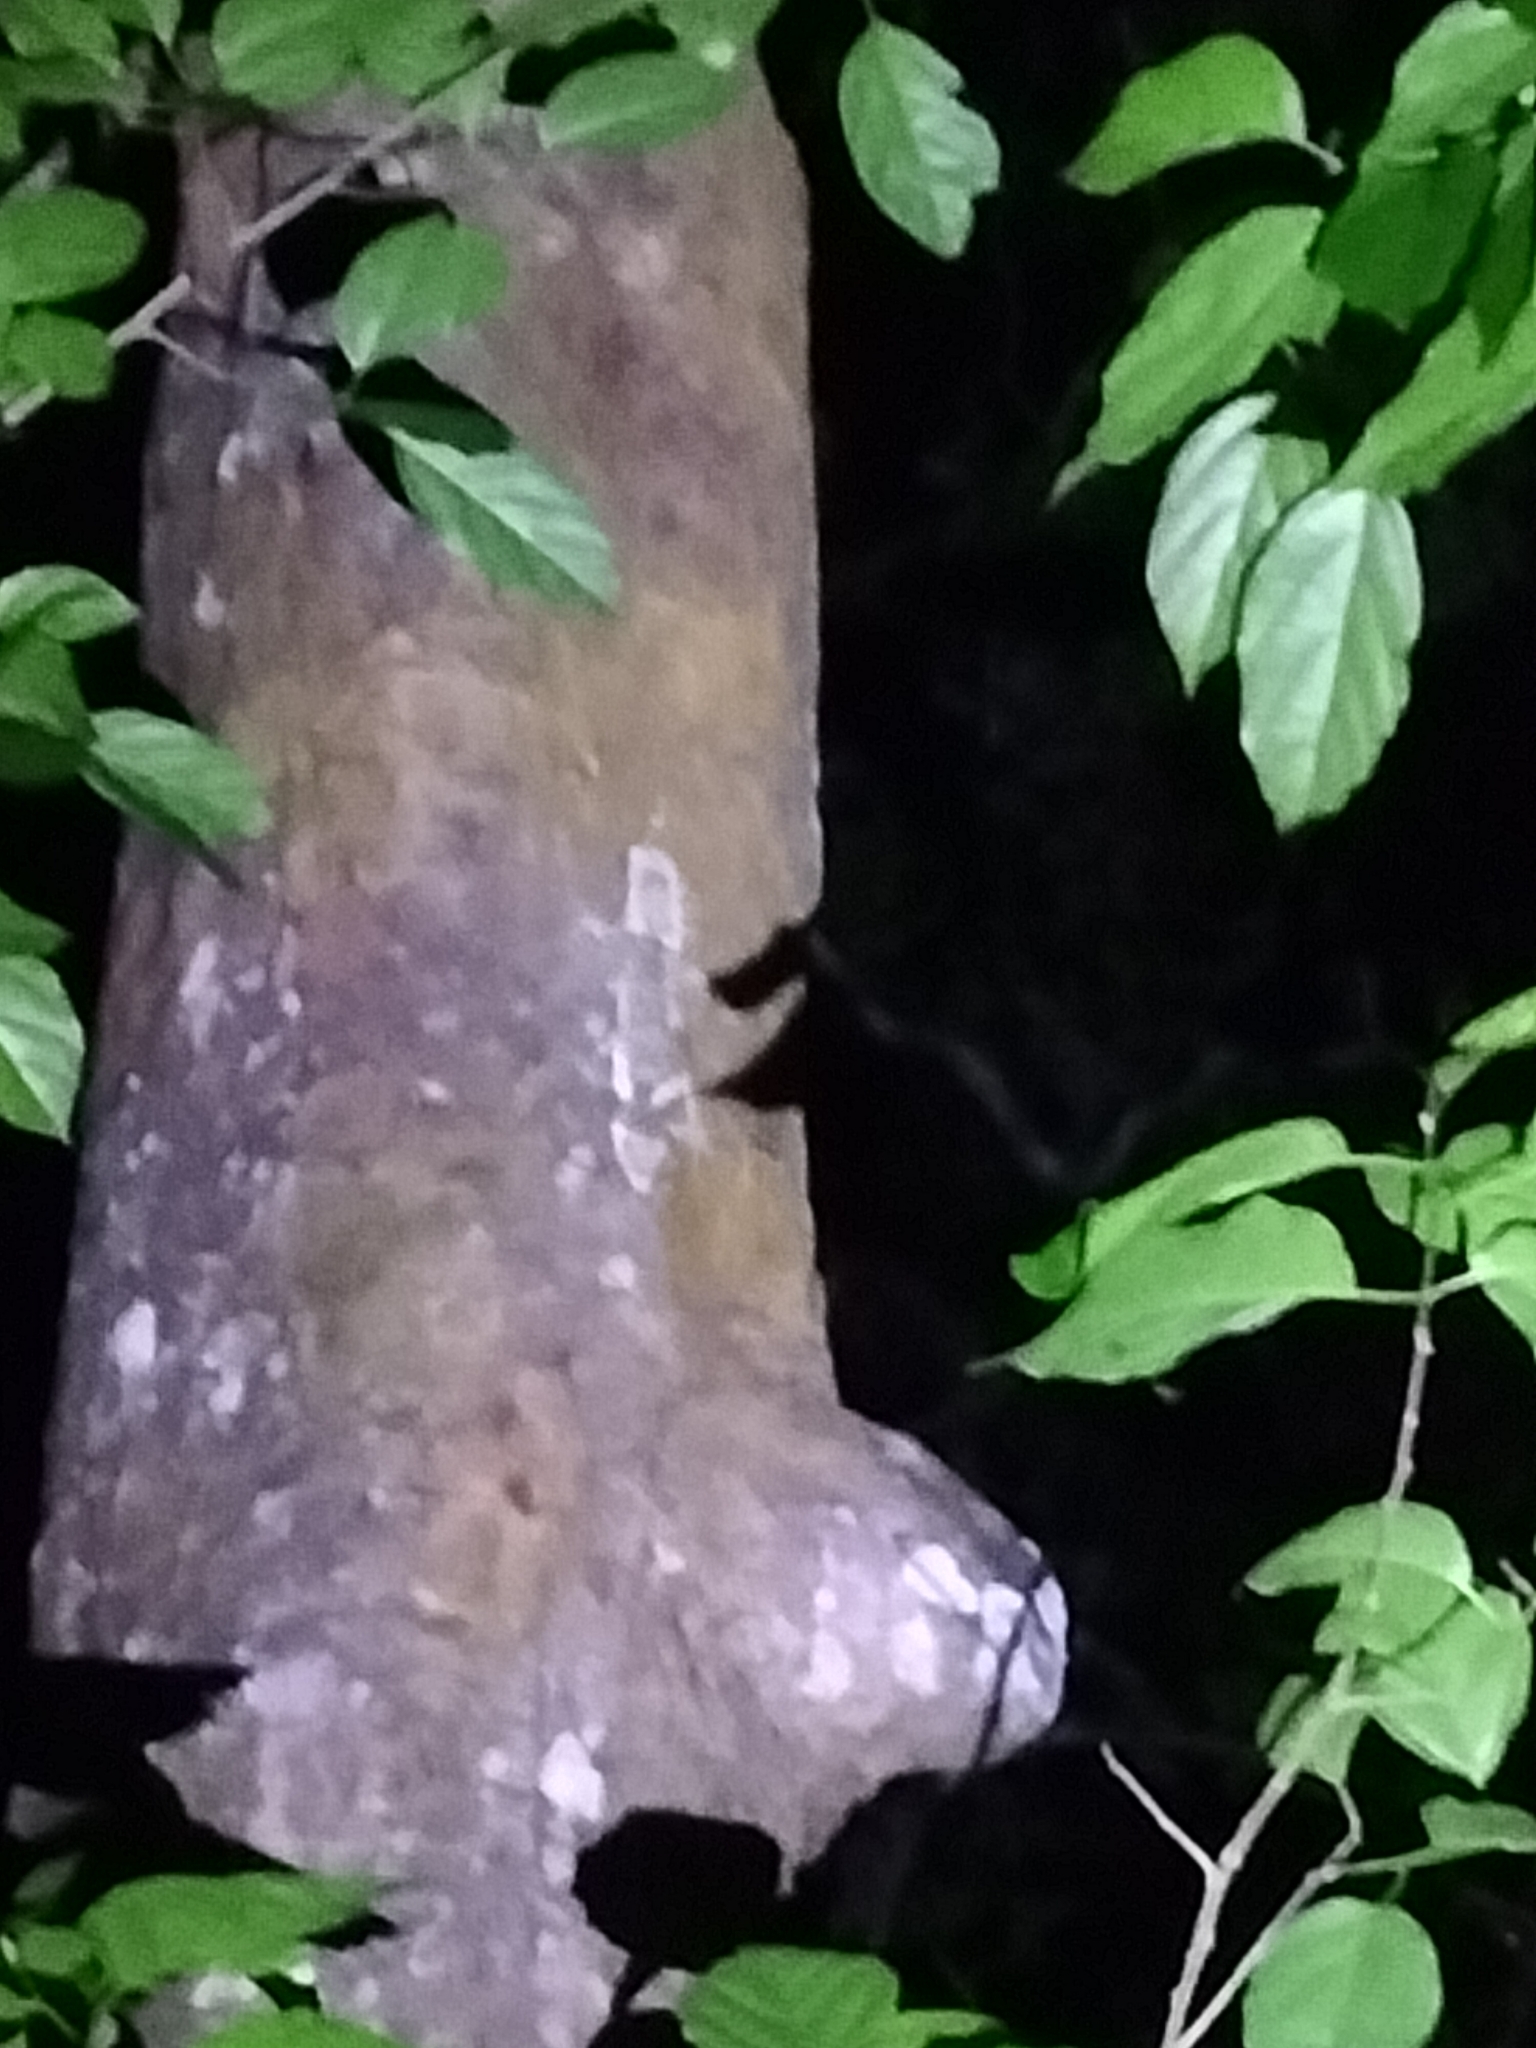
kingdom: Animalia
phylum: Chordata
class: Squamata
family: Carphodactylidae
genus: Saltuarius
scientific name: Saltuarius cornutus
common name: Leaf-tailed gecko
